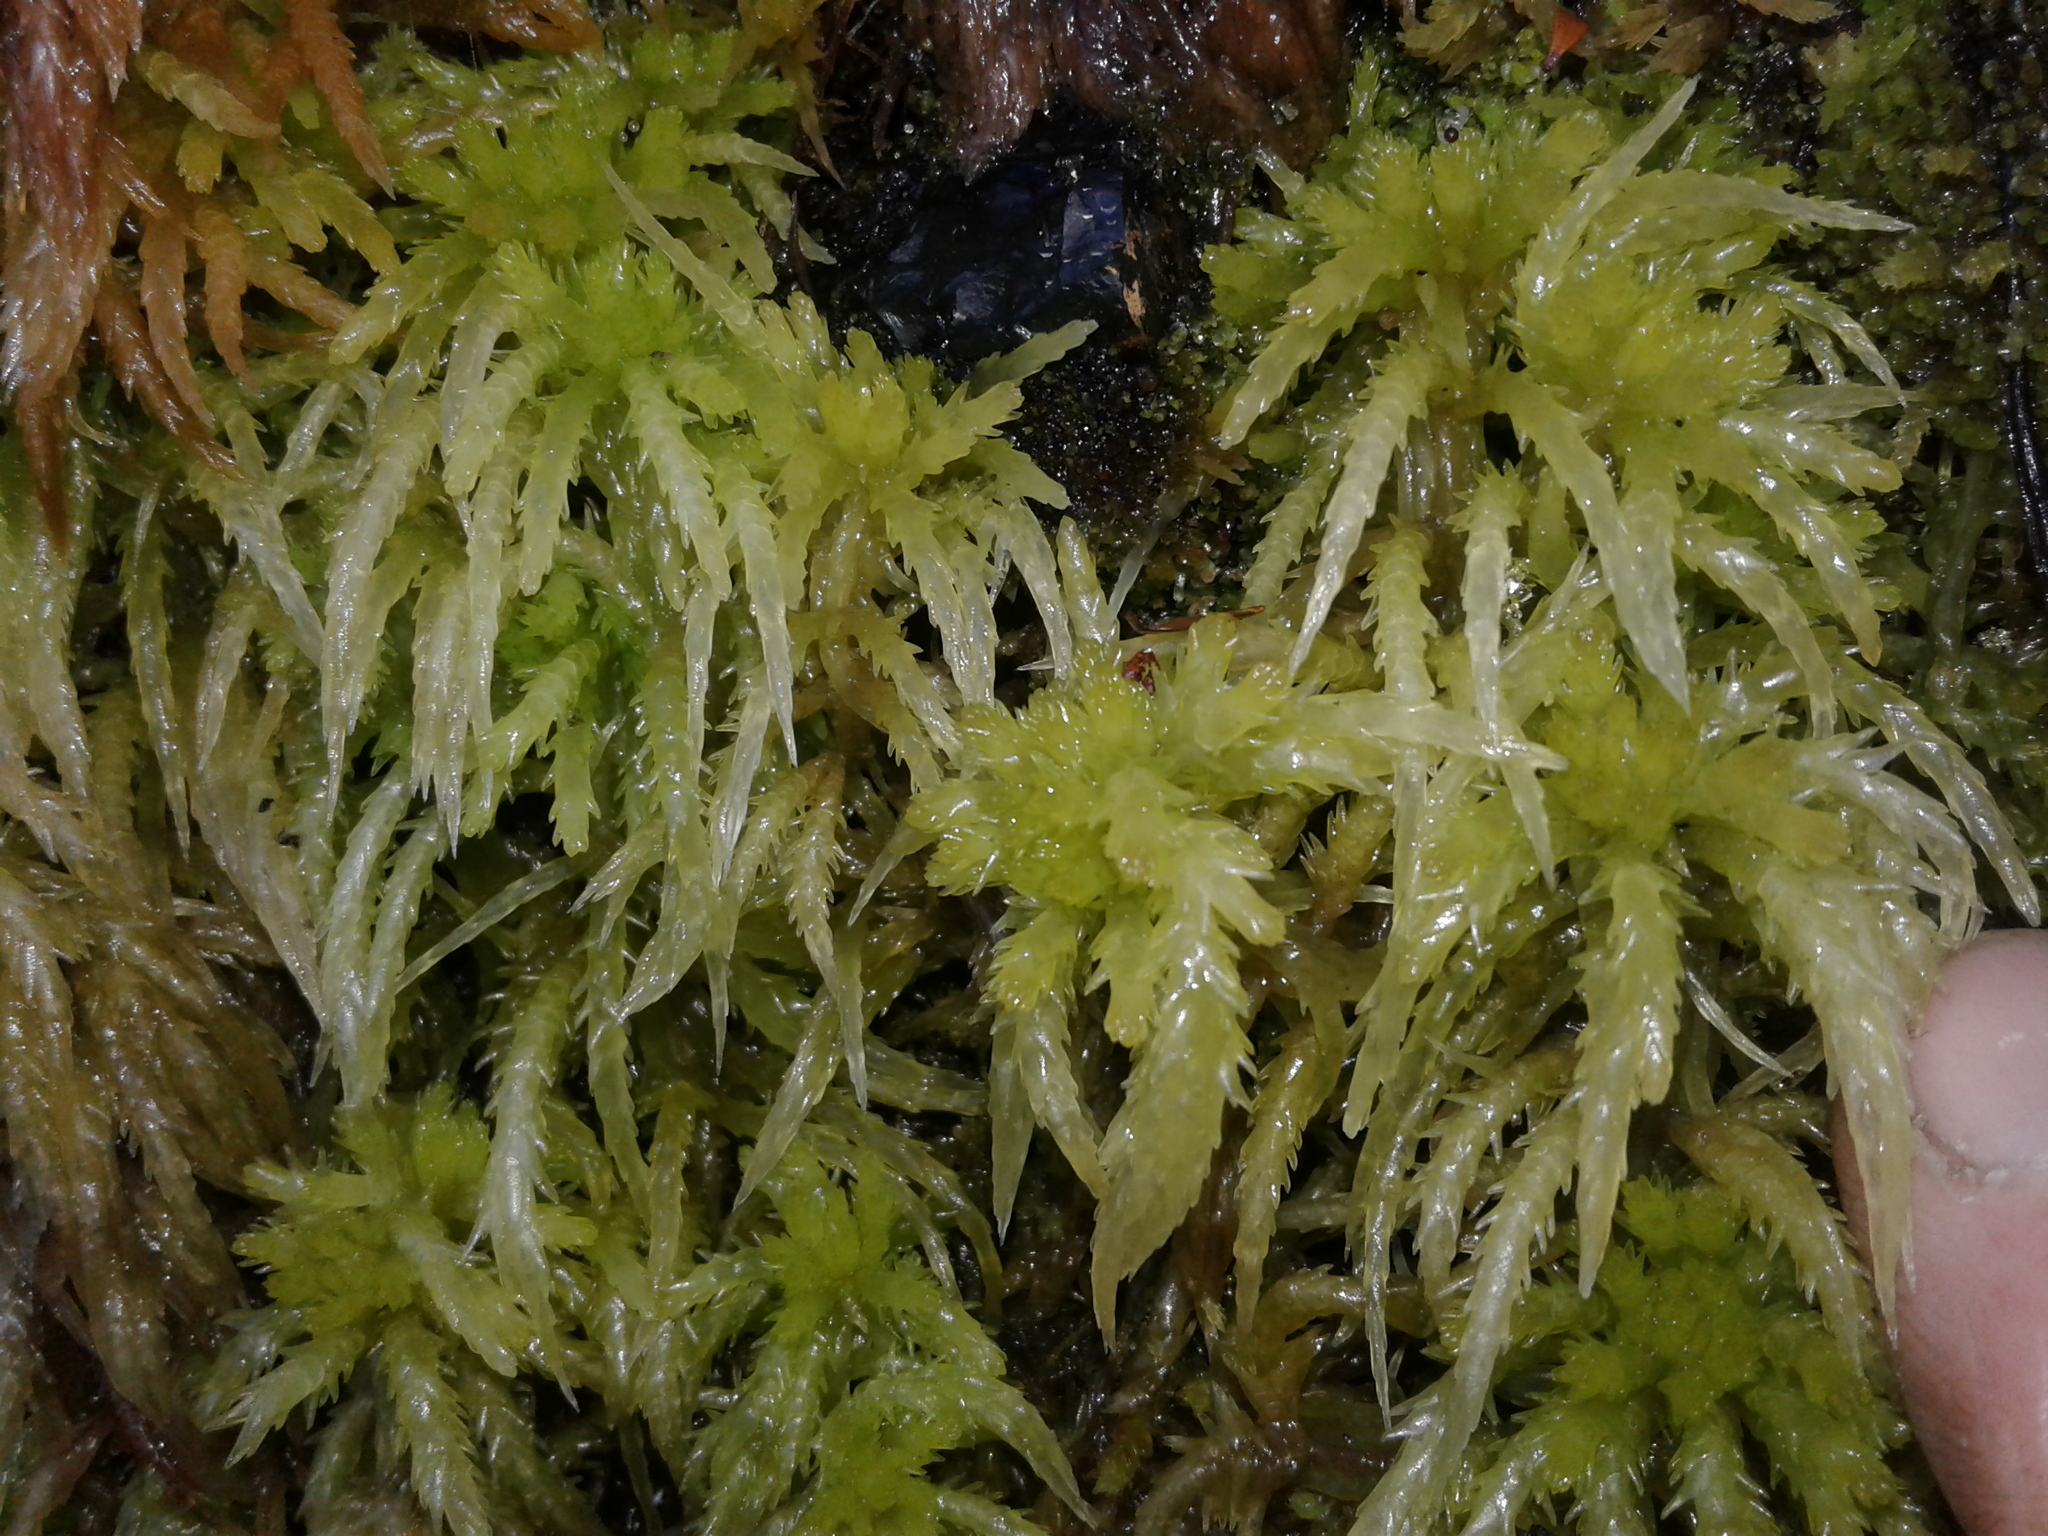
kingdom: Plantae
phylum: Bryophyta
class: Sphagnopsida
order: Sphagnales
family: Sphagnaceae
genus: Sphagnum
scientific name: Sphagnum cristatum
